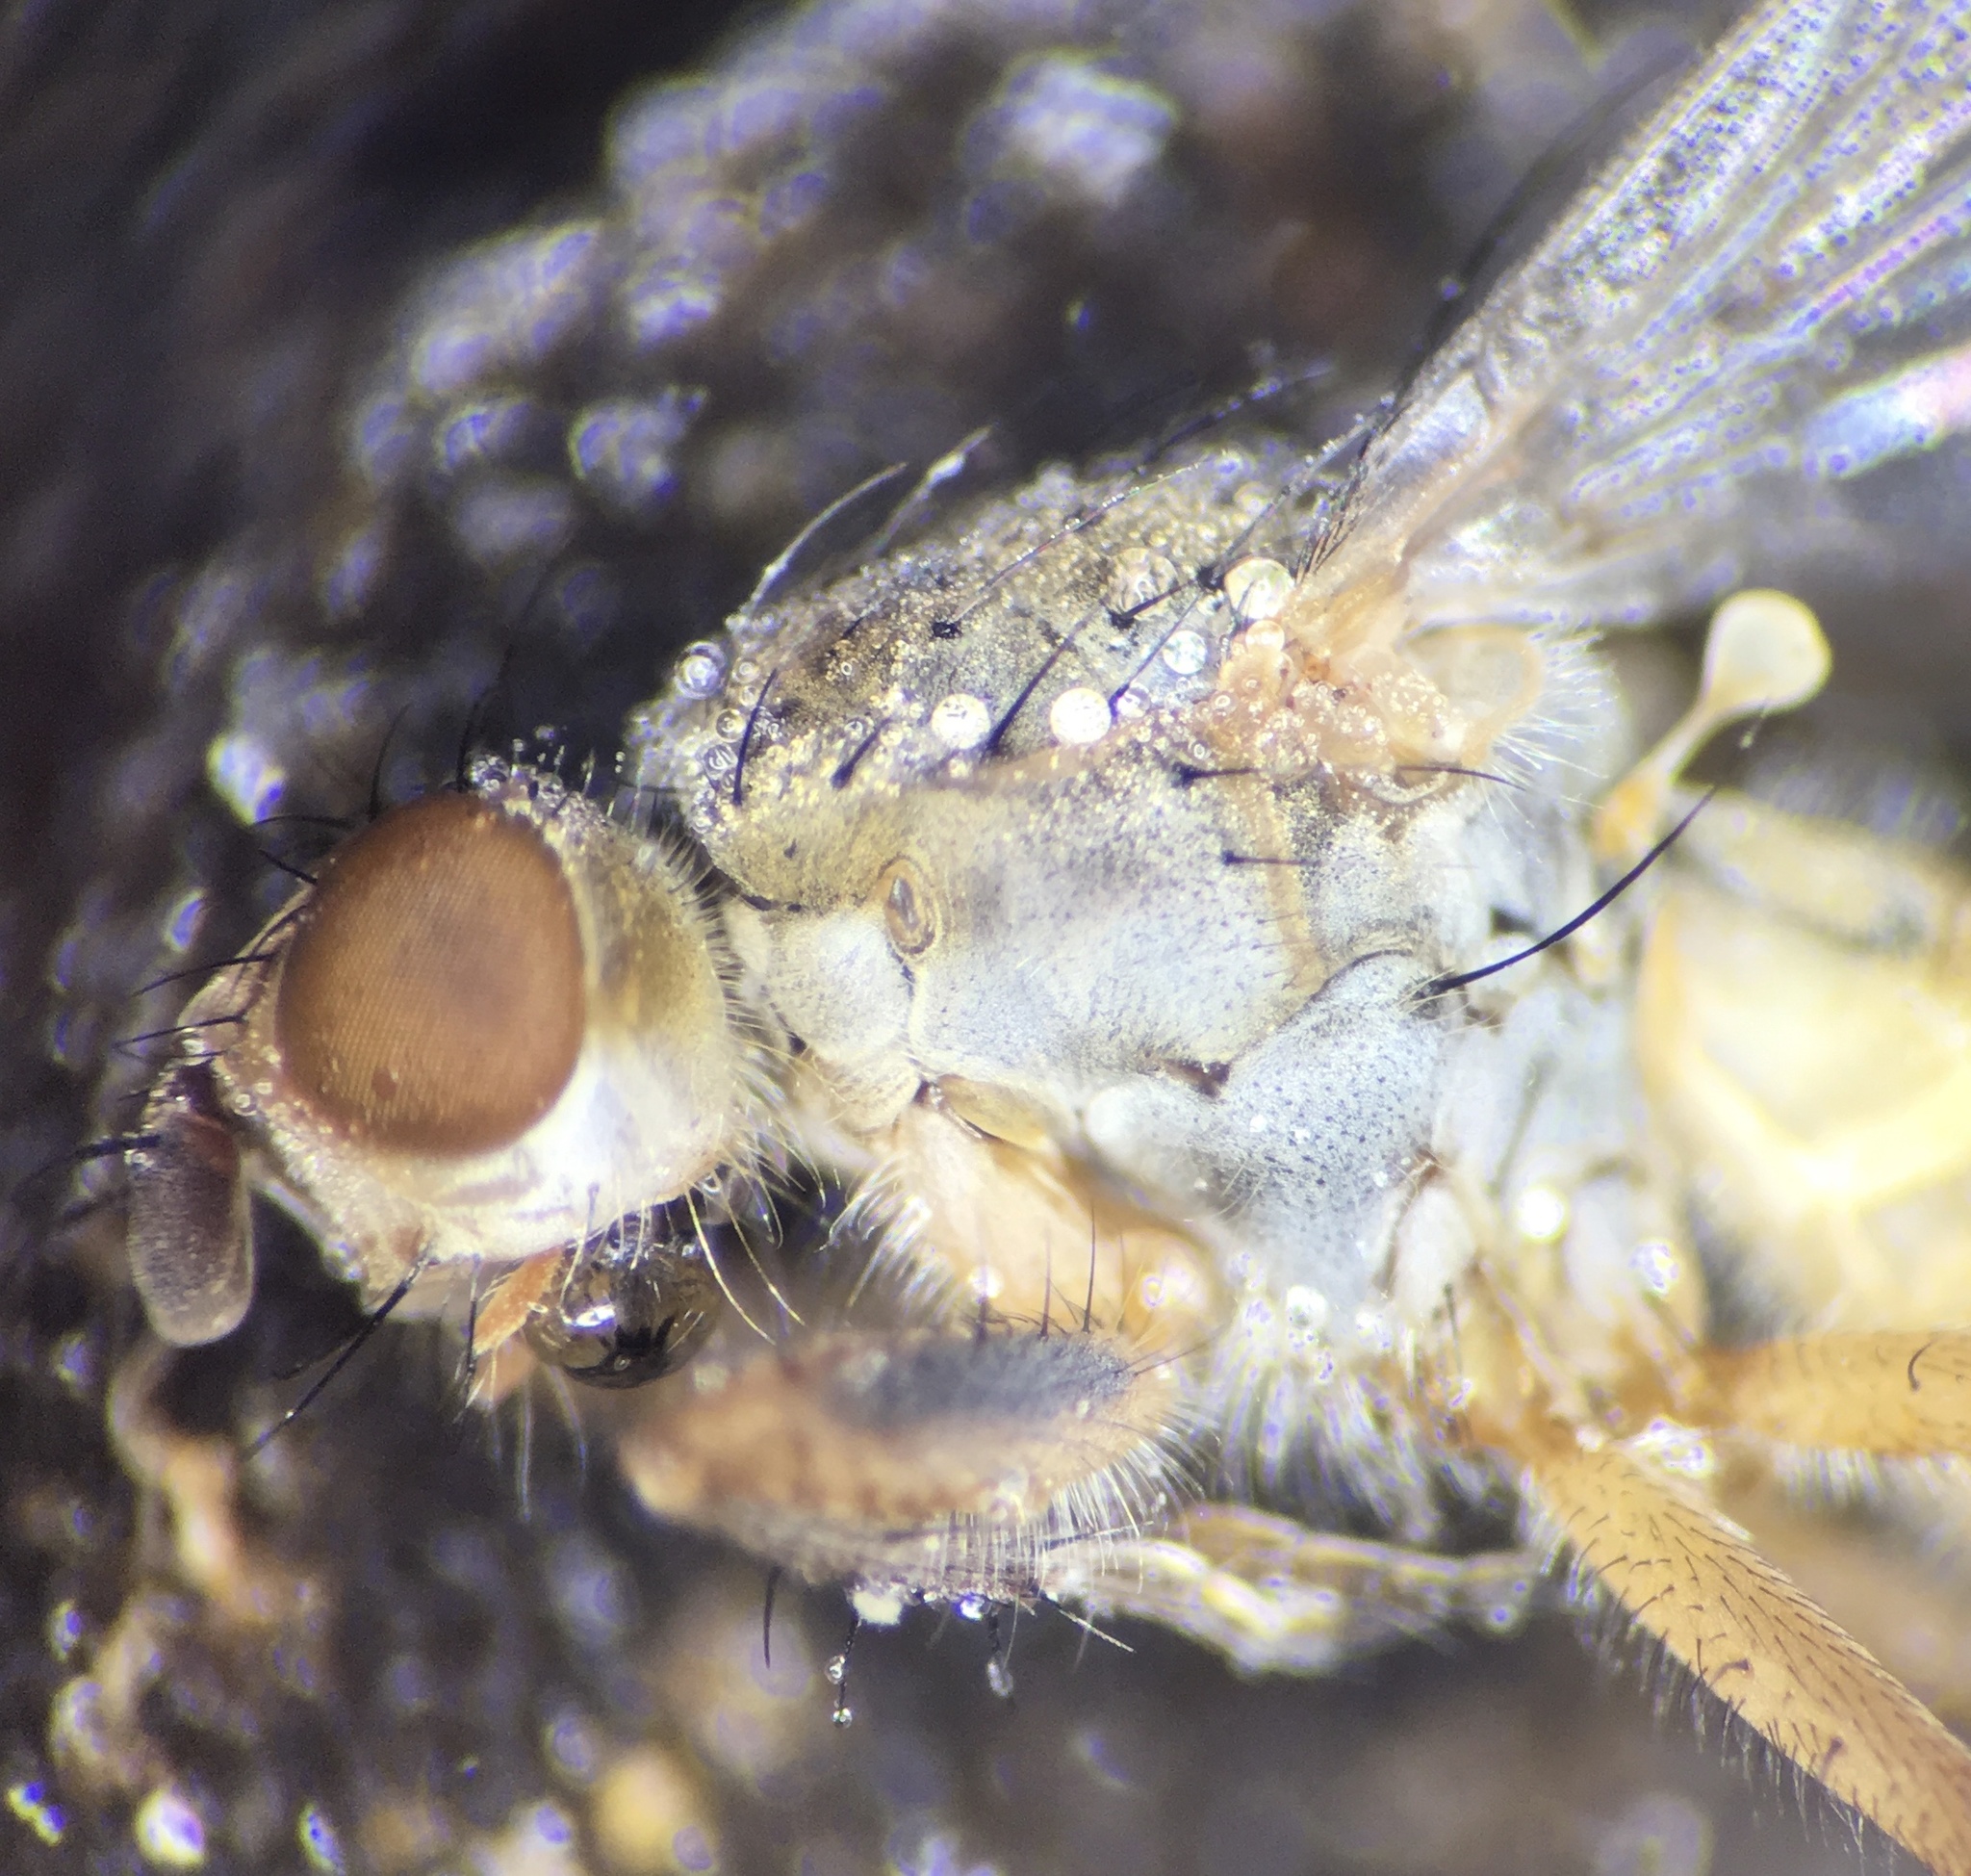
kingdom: Animalia
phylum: Arthropoda
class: Insecta
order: Diptera
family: Scathophagidae
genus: Scathophaga
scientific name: Scathophaga stercoraria
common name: Yellow dung fly
